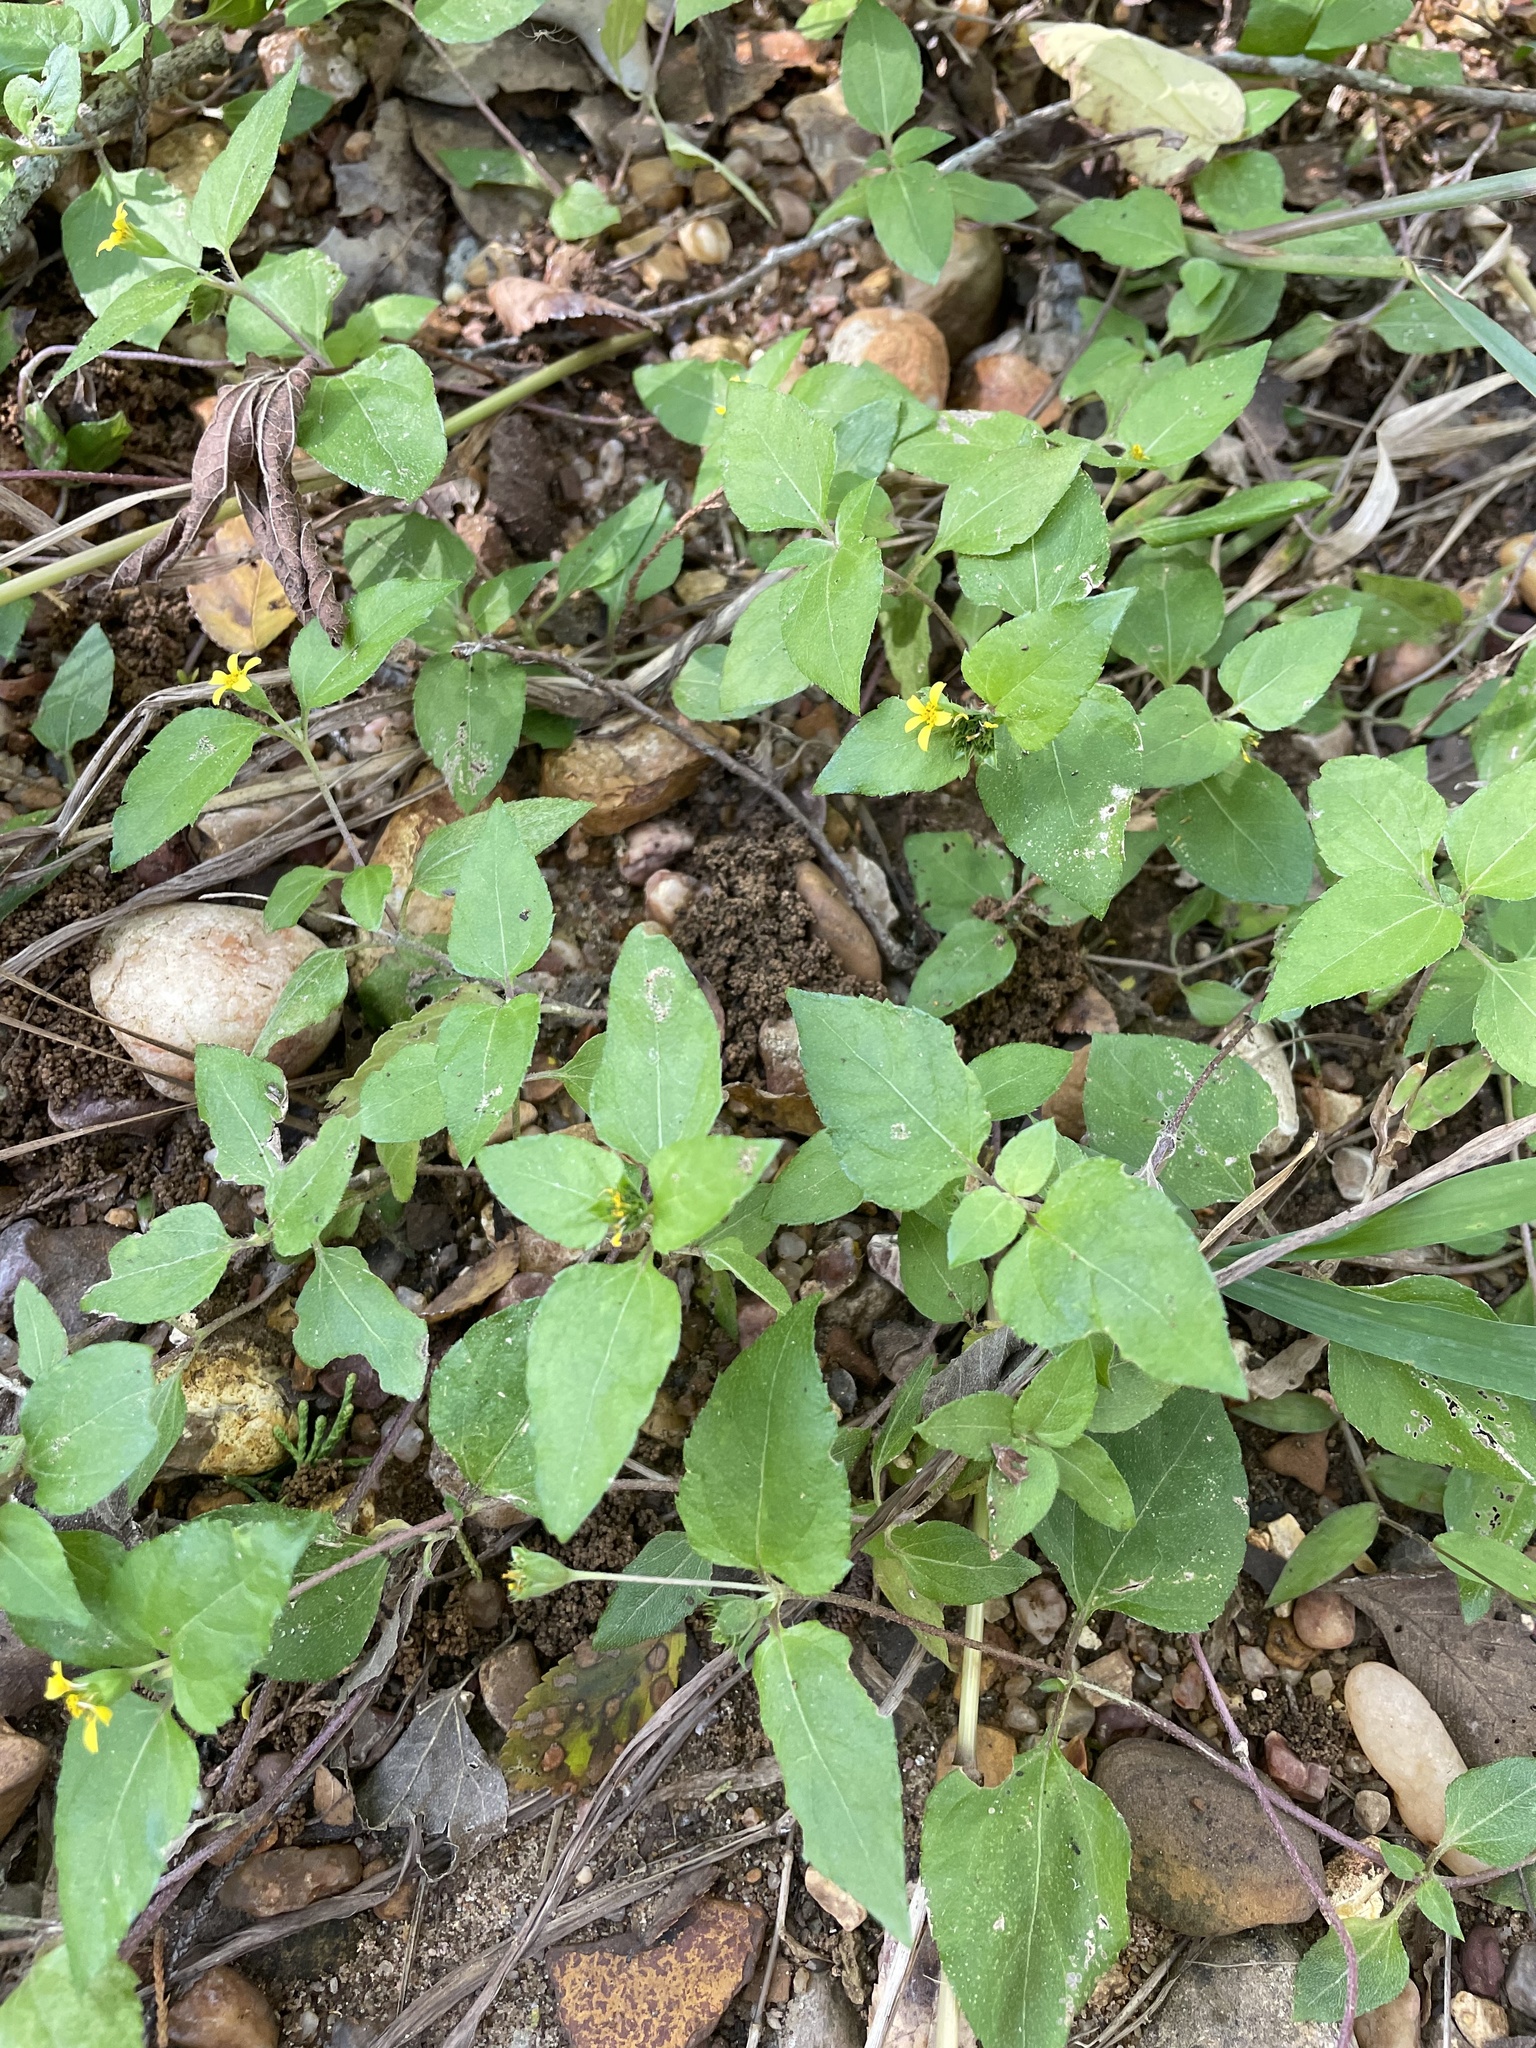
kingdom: Plantae
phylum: Tracheophyta
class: Magnoliopsida
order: Asterales
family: Asteraceae
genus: Calyptocarpus
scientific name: Calyptocarpus vialis
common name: Straggler daisy
